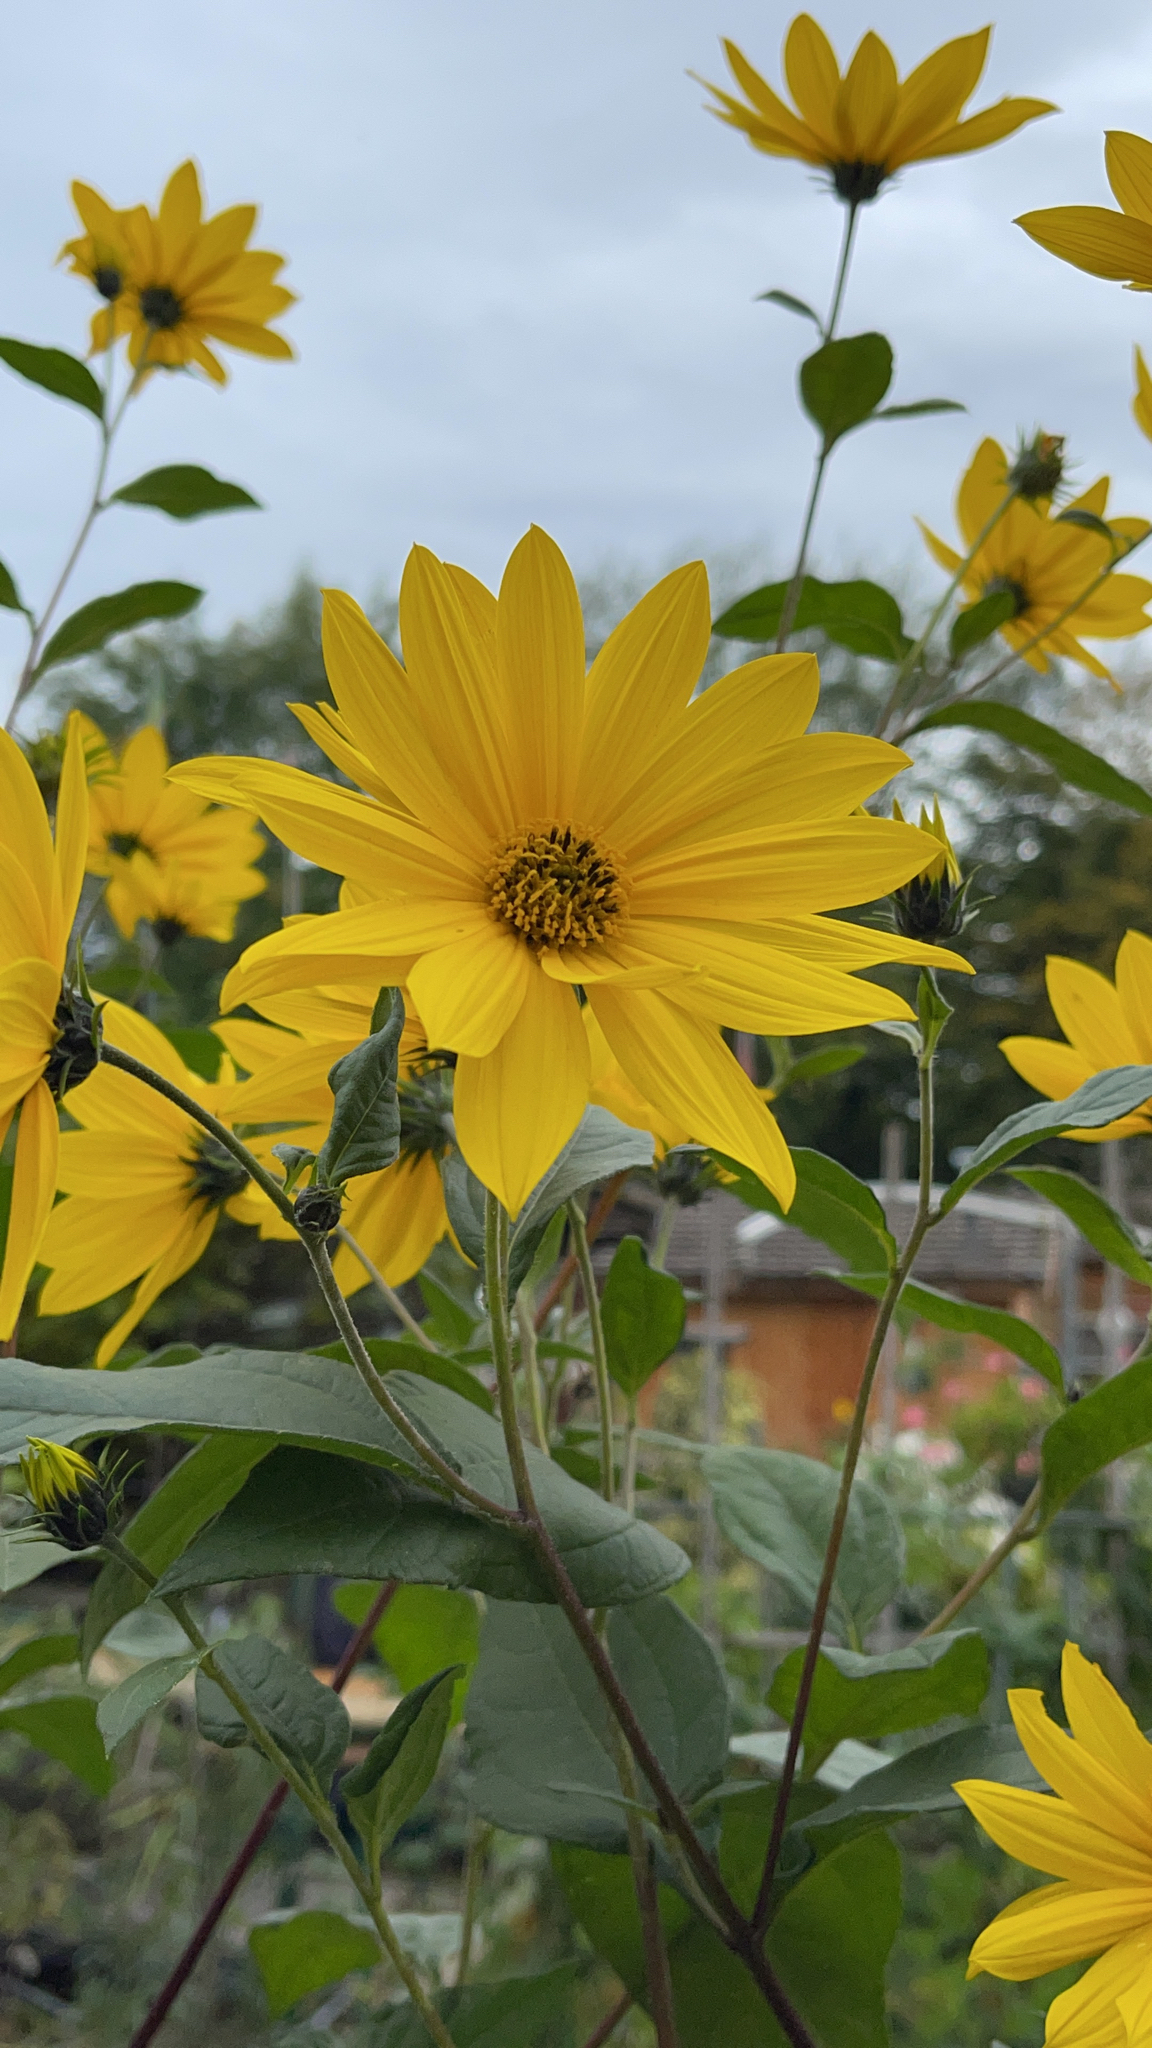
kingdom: Plantae
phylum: Tracheophyta
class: Magnoliopsida
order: Asterales
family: Asteraceae
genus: Helianthus
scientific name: Helianthus tuberosus
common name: Jerusalem artichoke
